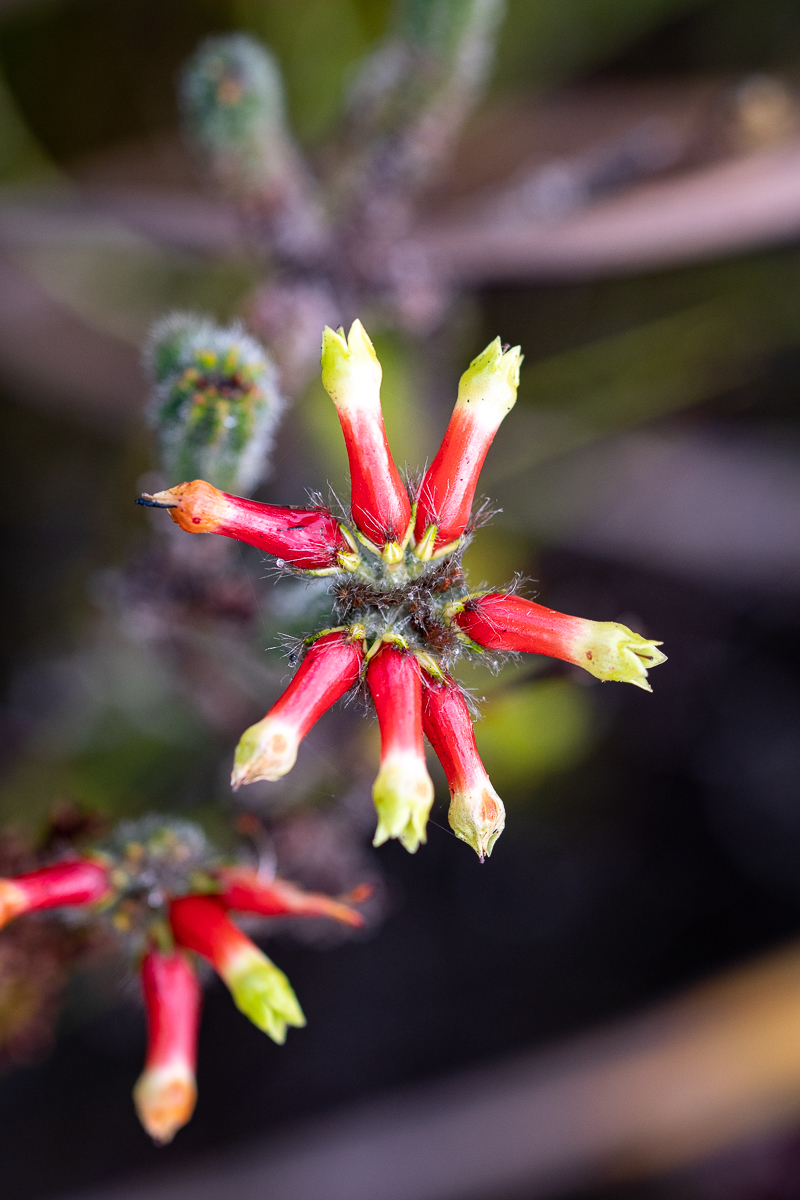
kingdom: Plantae
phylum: Tracheophyta
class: Magnoliopsida
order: Ericales
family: Ericaceae
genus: Erica
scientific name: Erica massonii
